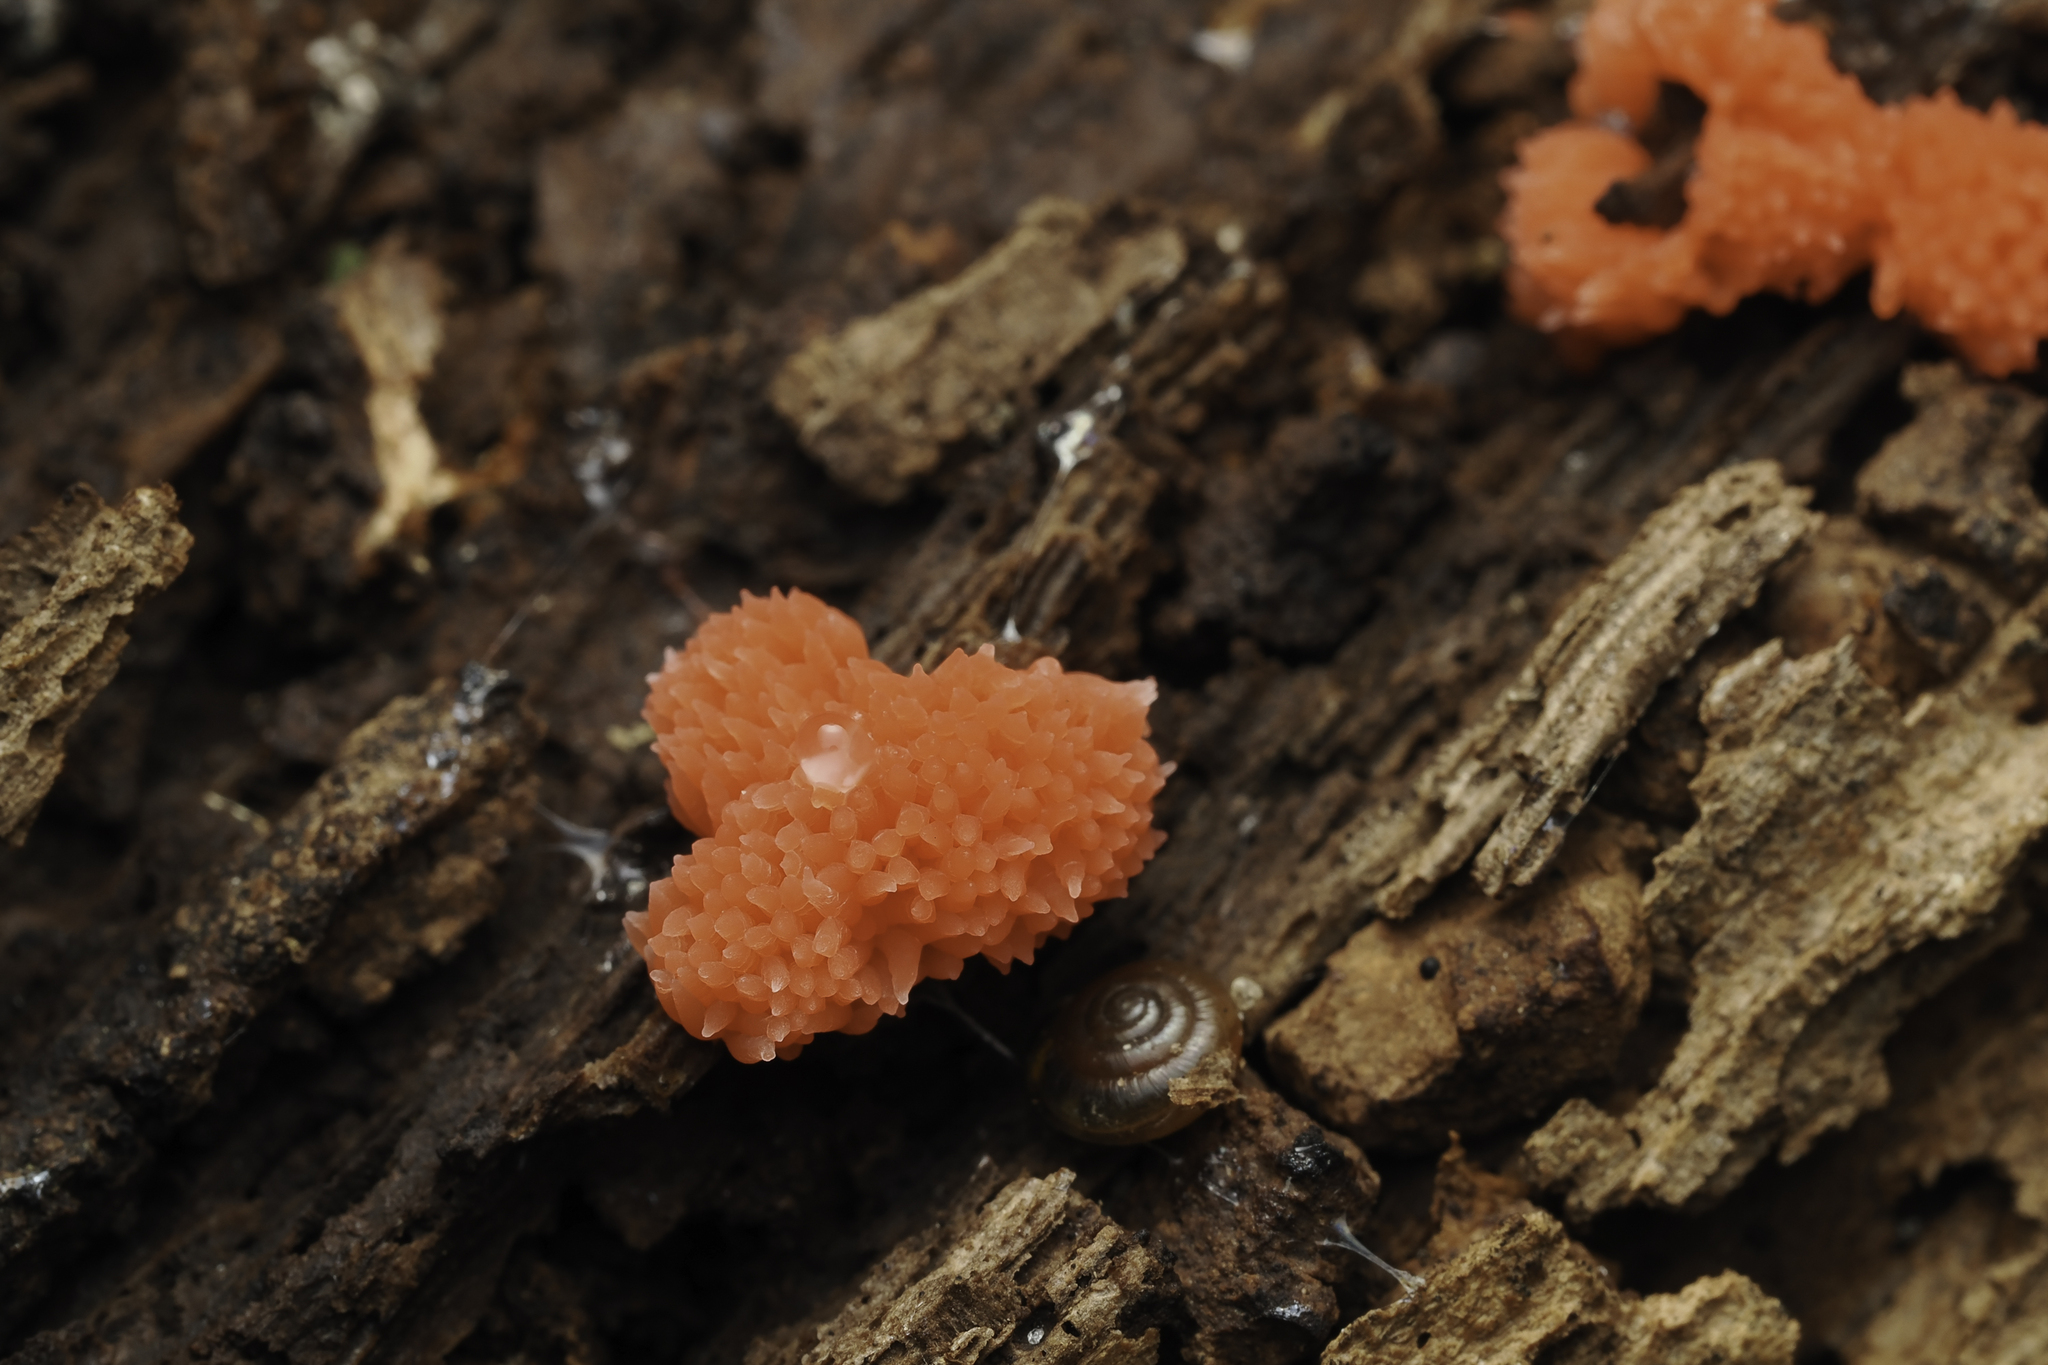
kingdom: Protozoa
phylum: Mycetozoa
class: Myxomycetes
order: Cribrariales
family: Tubiferaceae
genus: Tubifera
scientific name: Tubifera ferruginosa
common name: Red raspberry slime mold
